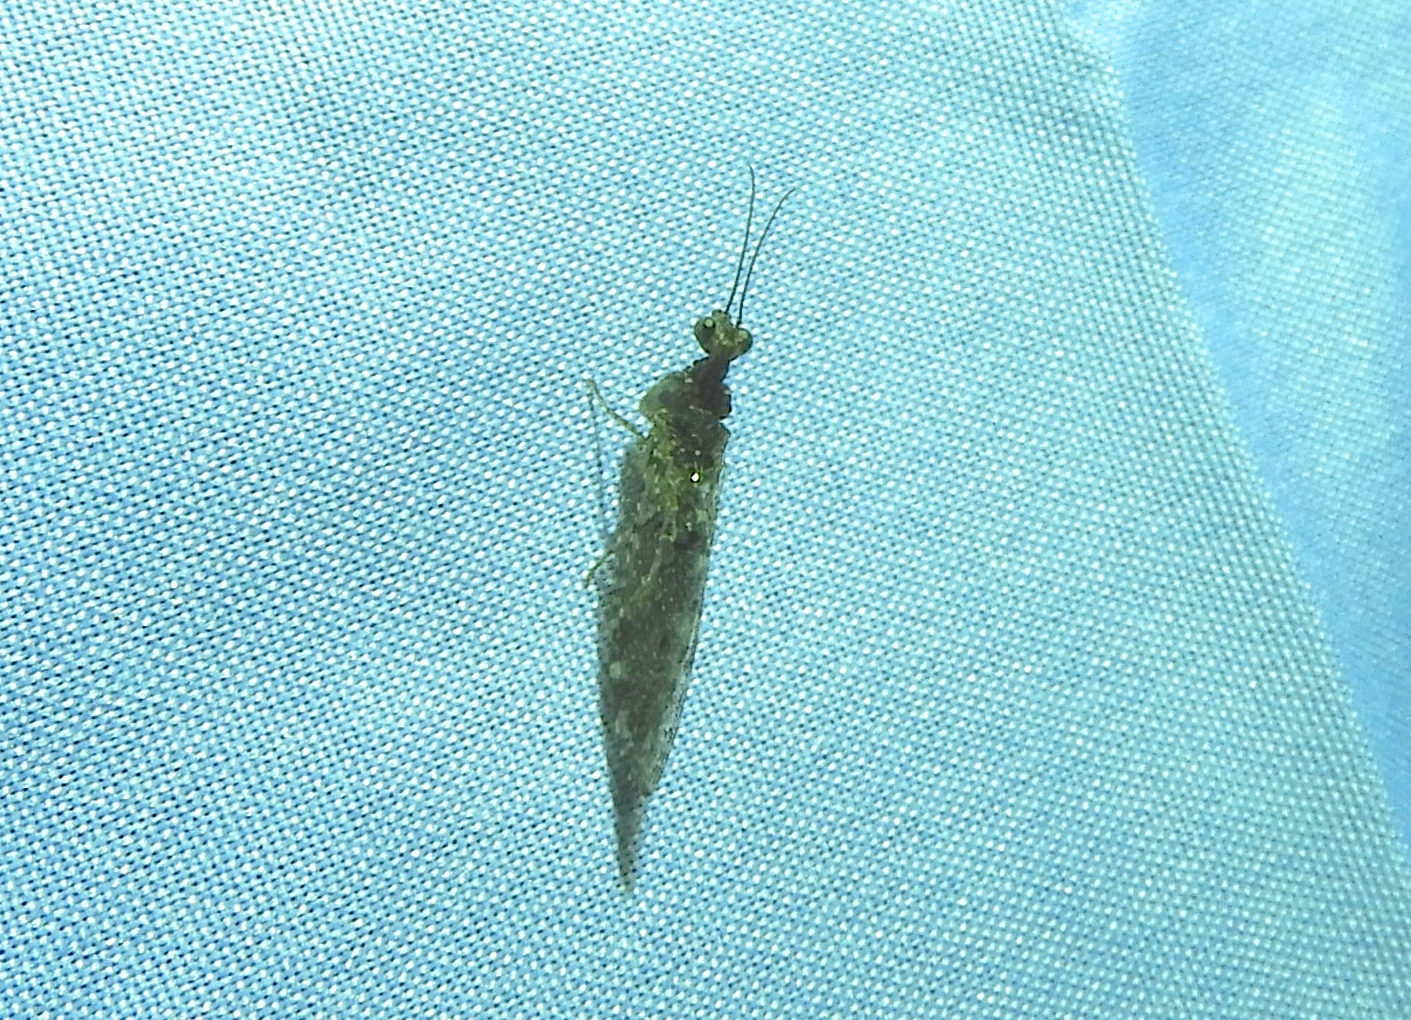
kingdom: Animalia
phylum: Arthropoda
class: Insecta
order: Neuroptera
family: Mantispidae
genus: Plega
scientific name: Plega
